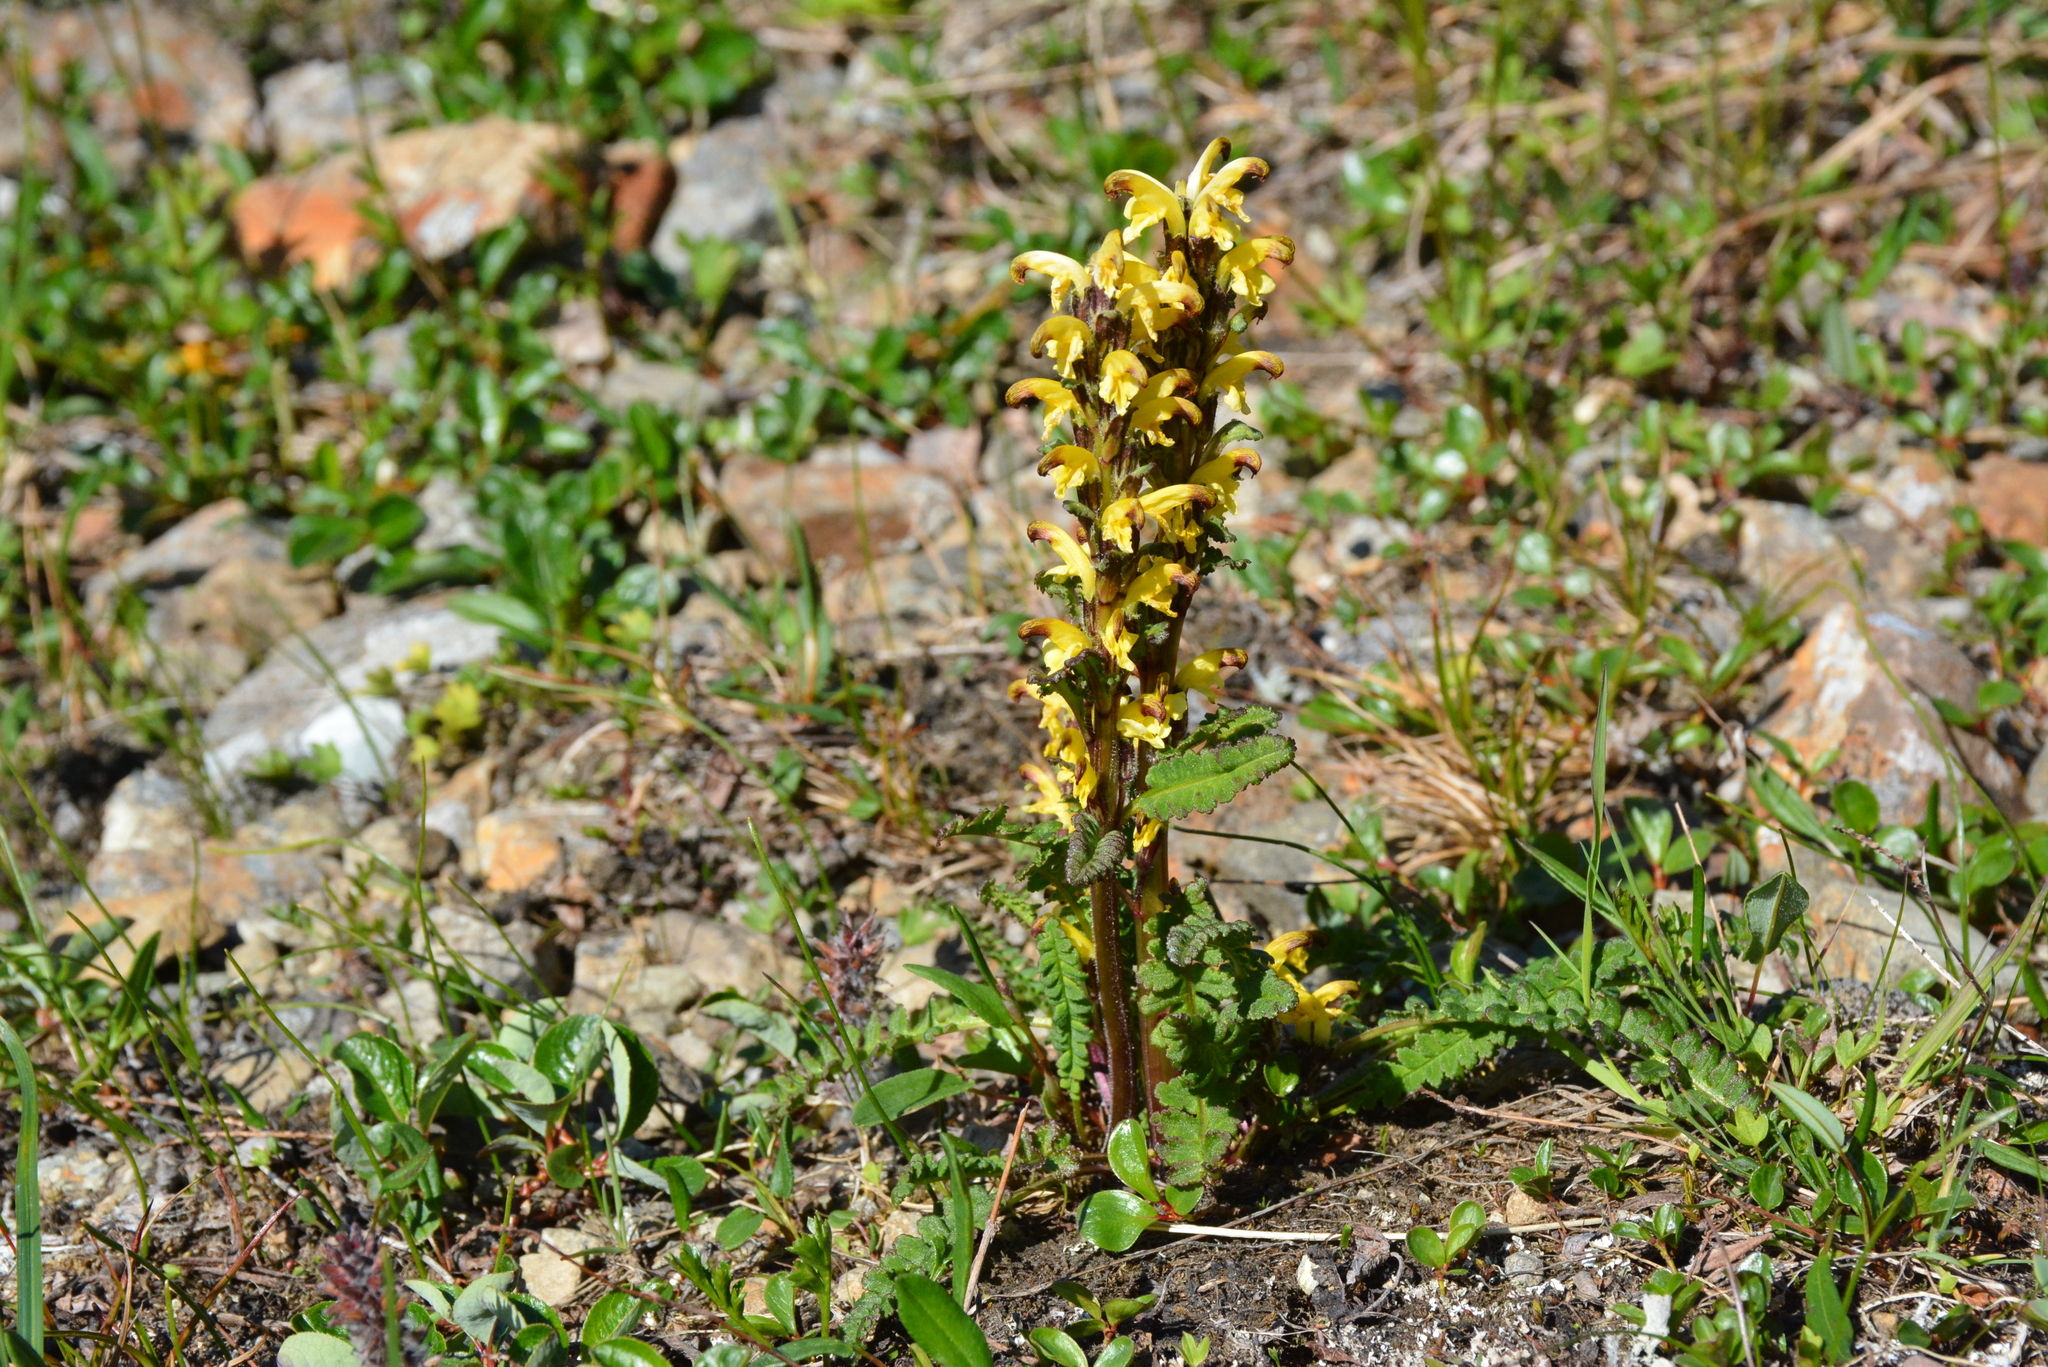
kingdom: Plantae
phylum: Tracheophyta
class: Magnoliopsida
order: Lamiales
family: Orobanchaceae
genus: Pedicularis
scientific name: Pedicularis oederi
